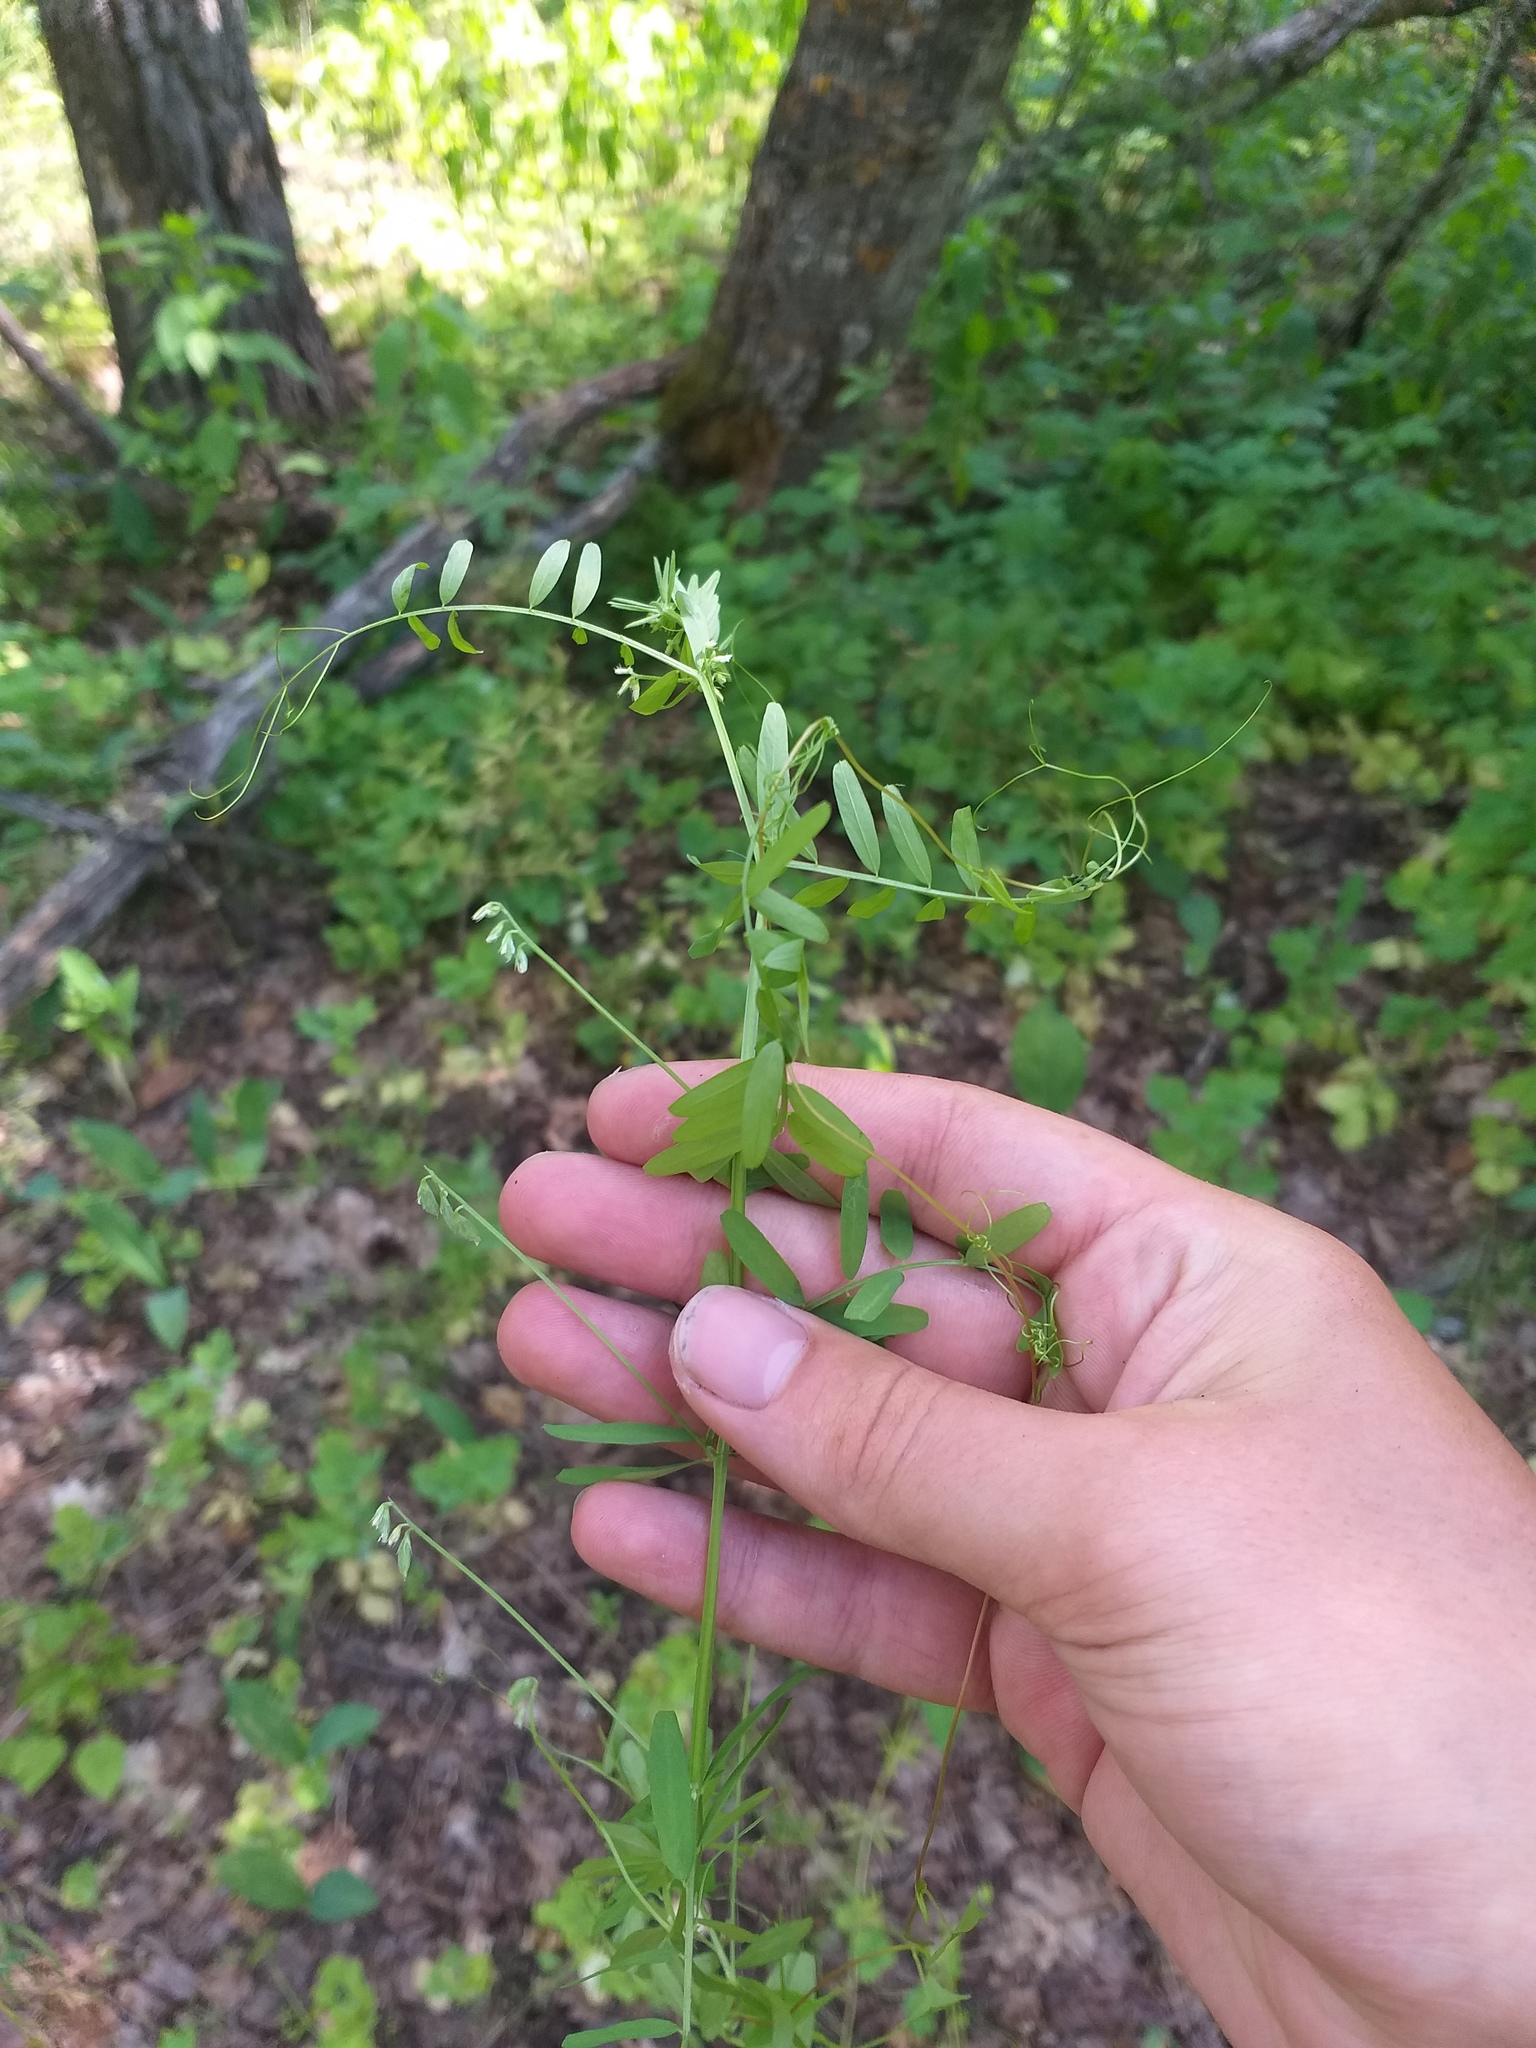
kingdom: Plantae
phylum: Tracheophyta
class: Magnoliopsida
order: Fabales
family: Fabaceae
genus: Vicia
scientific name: Vicia hirsuta
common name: Tiny vetch
